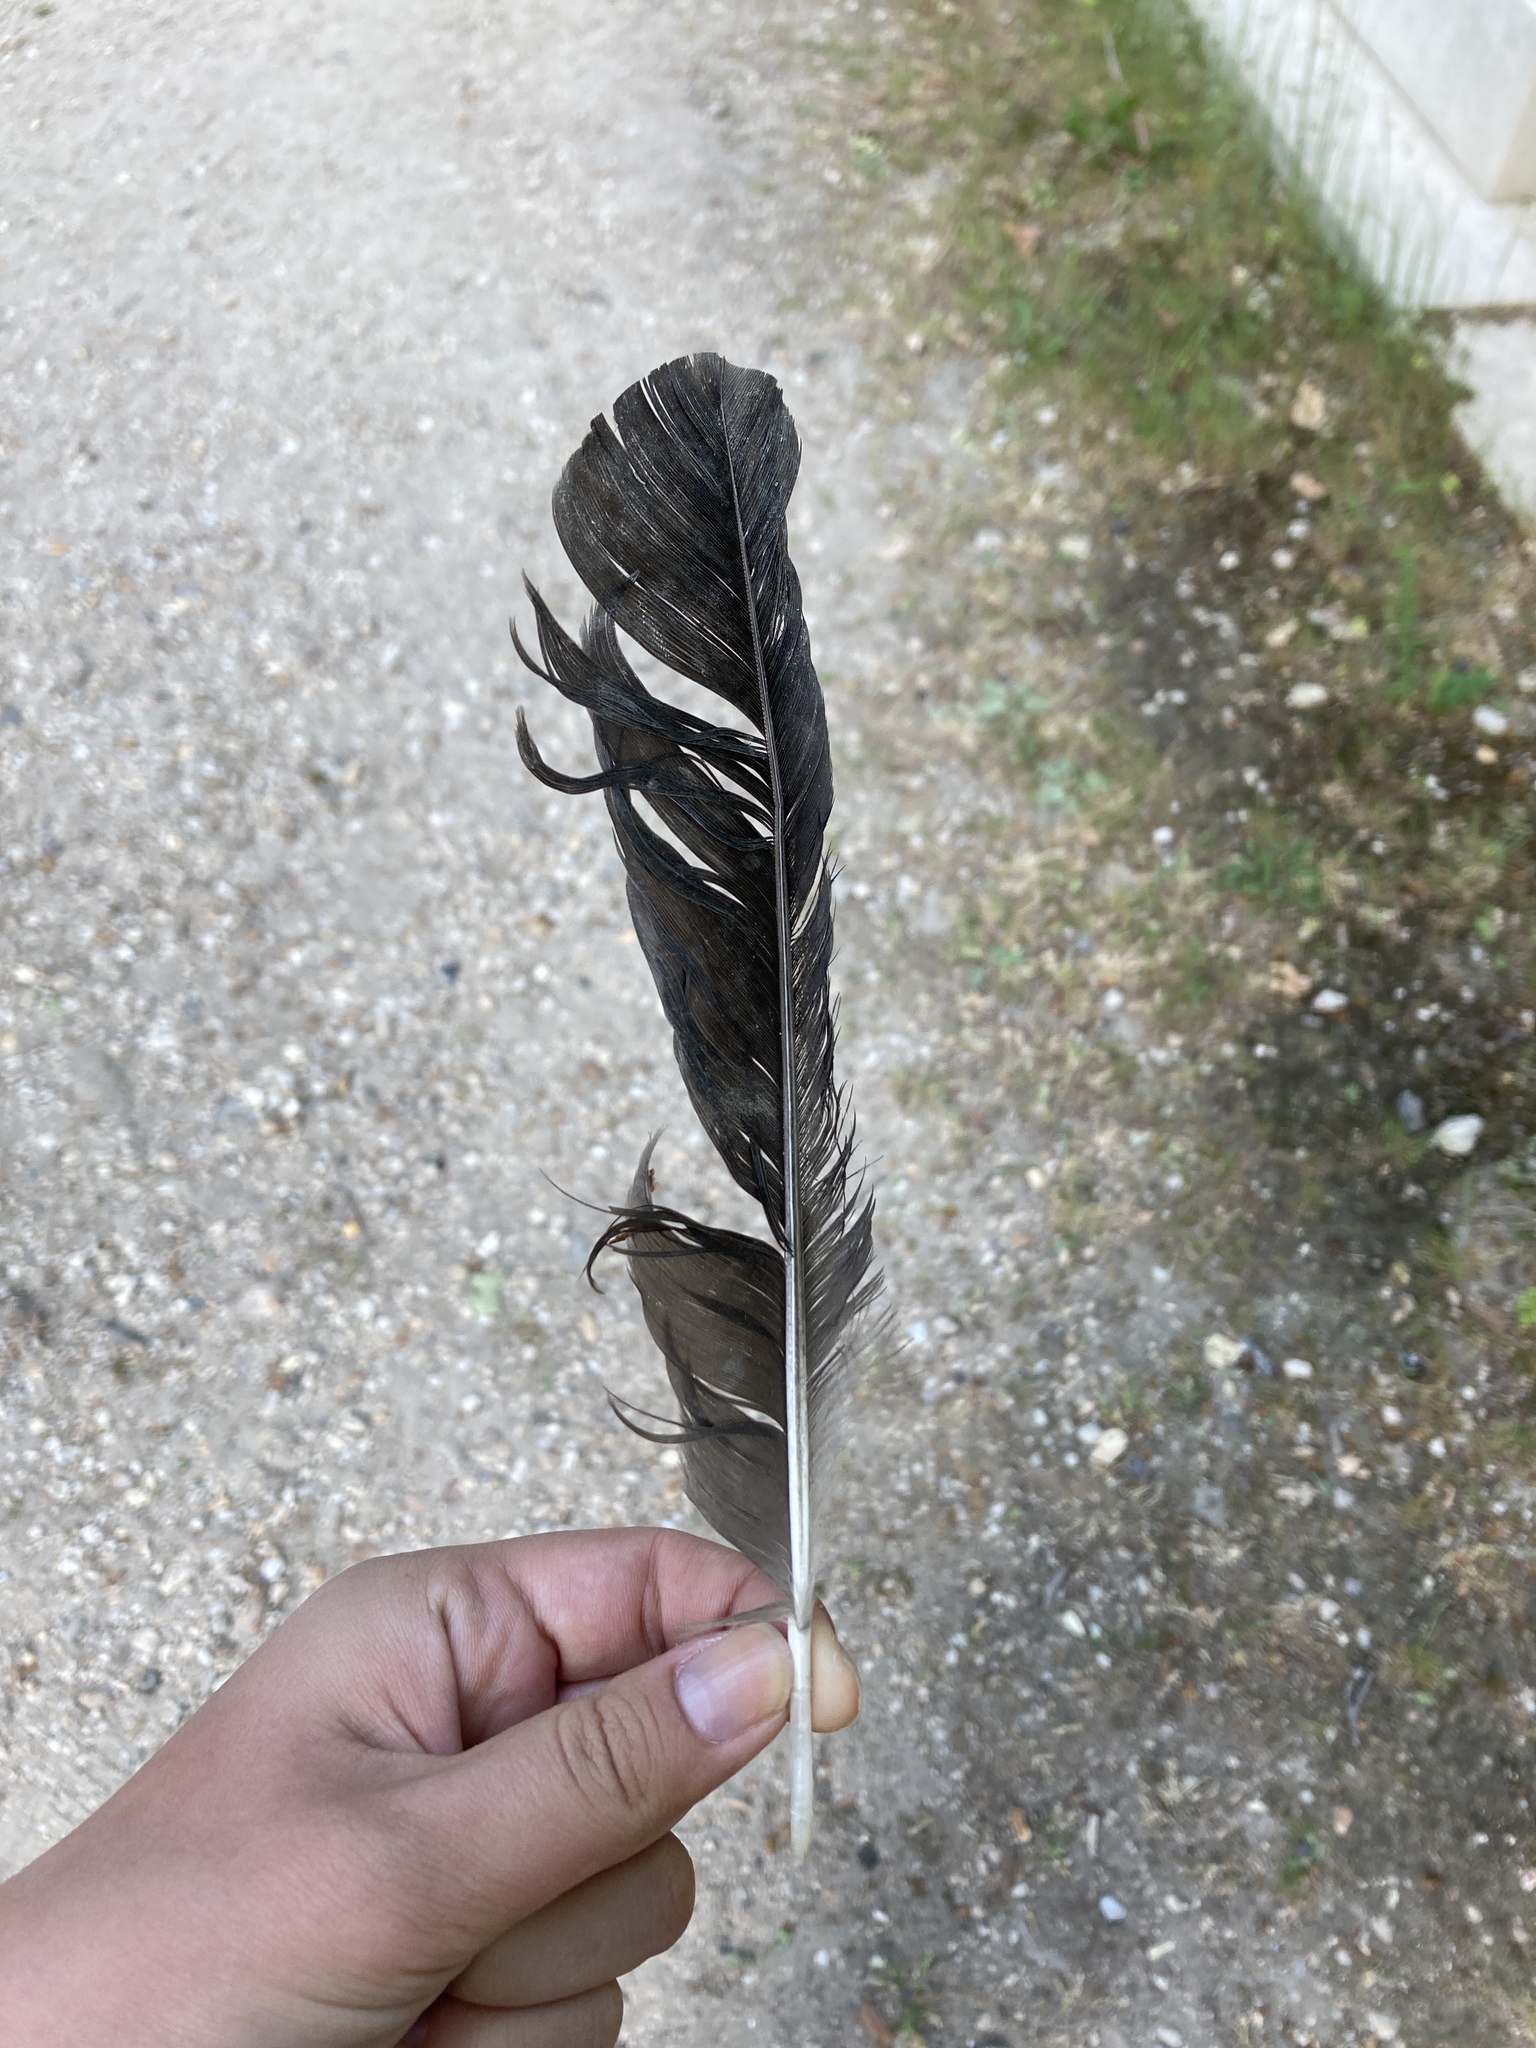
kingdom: Animalia
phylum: Chordata
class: Aves
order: Passeriformes
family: Corvidae
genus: Corvus
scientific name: Corvus corone
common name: Carrion crow
